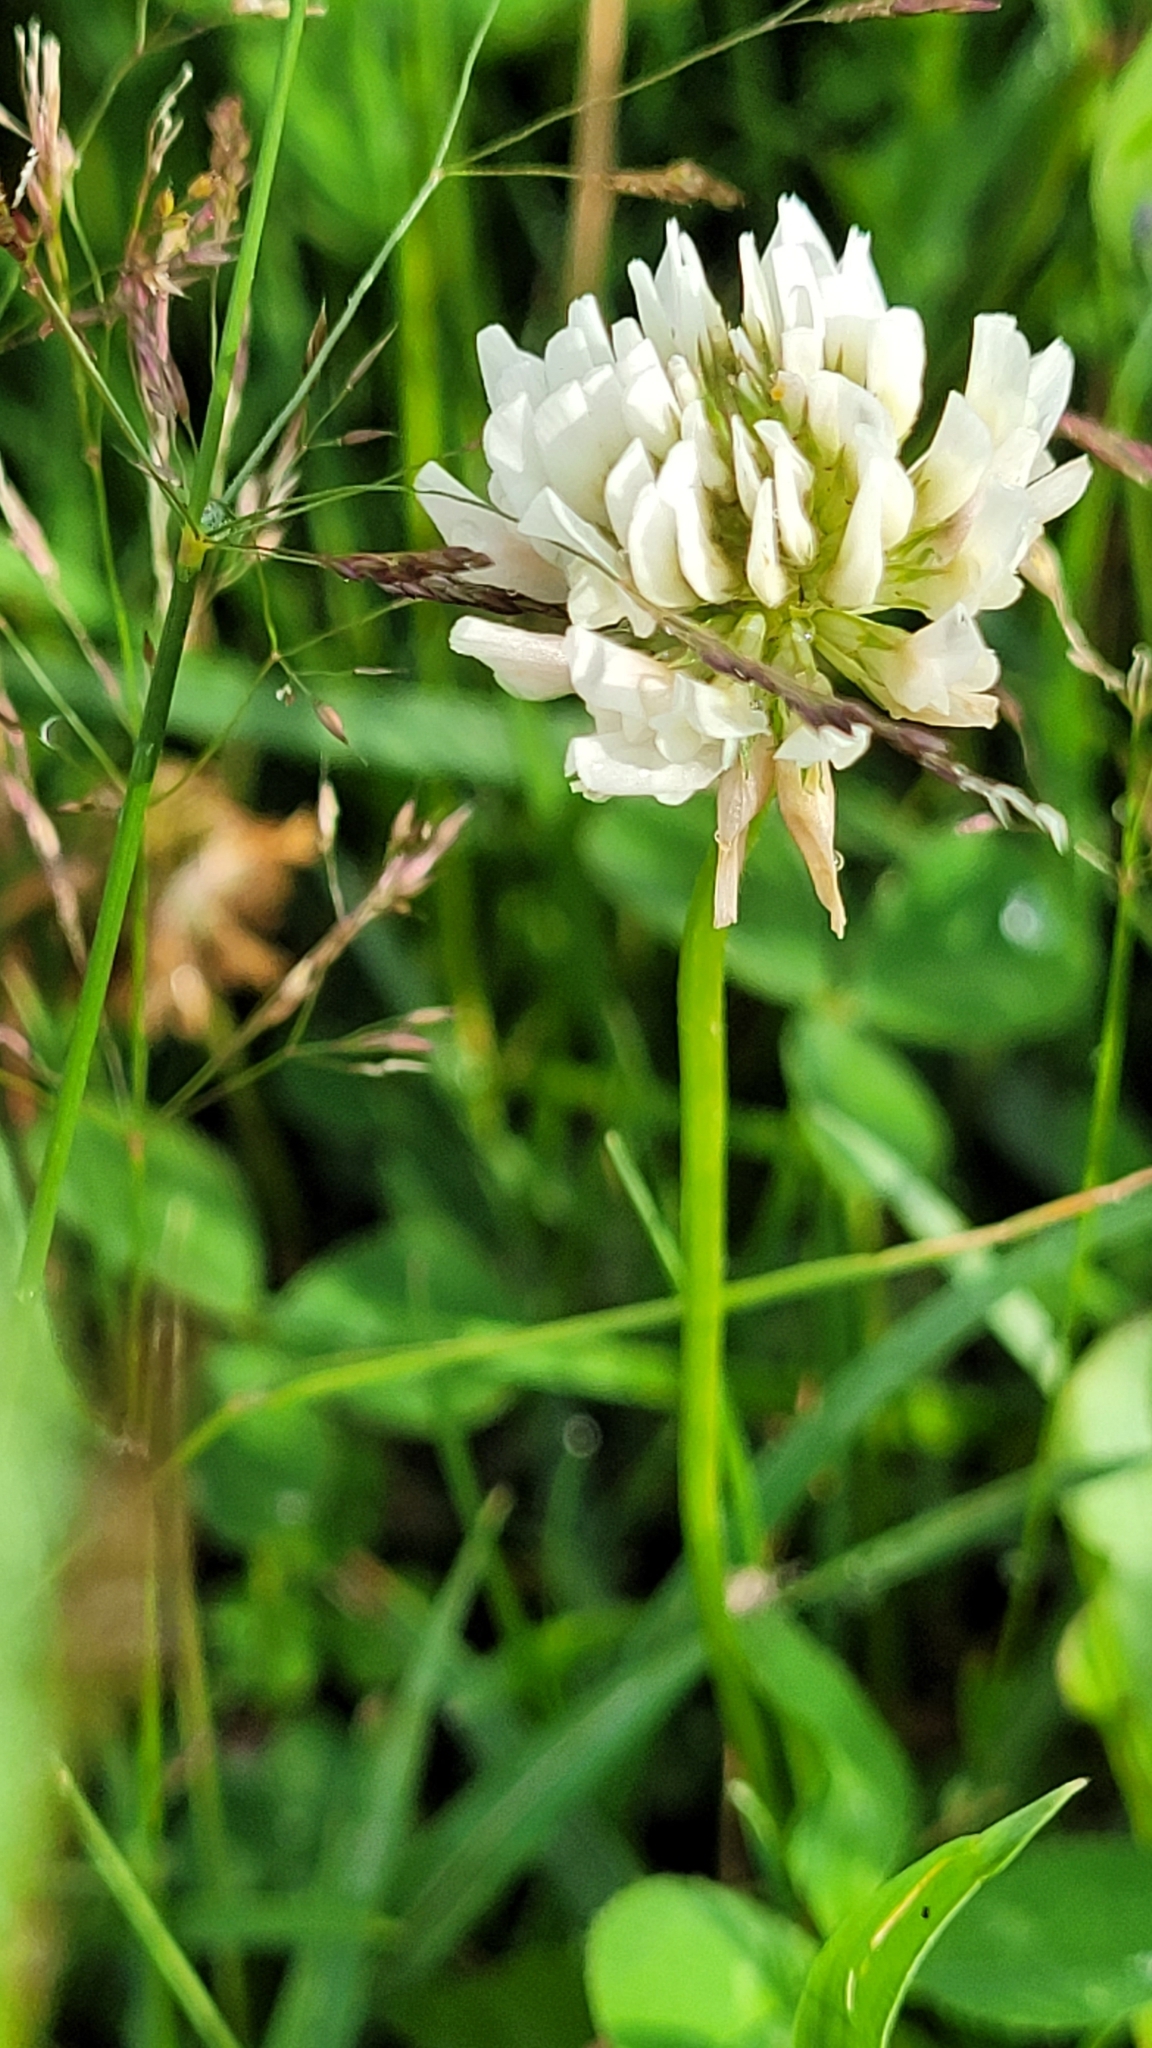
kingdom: Plantae
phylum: Tracheophyta
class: Magnoliopsida
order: Fabales
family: Fabaceae
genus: Trifolium
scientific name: Trifolium repens
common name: White clover
